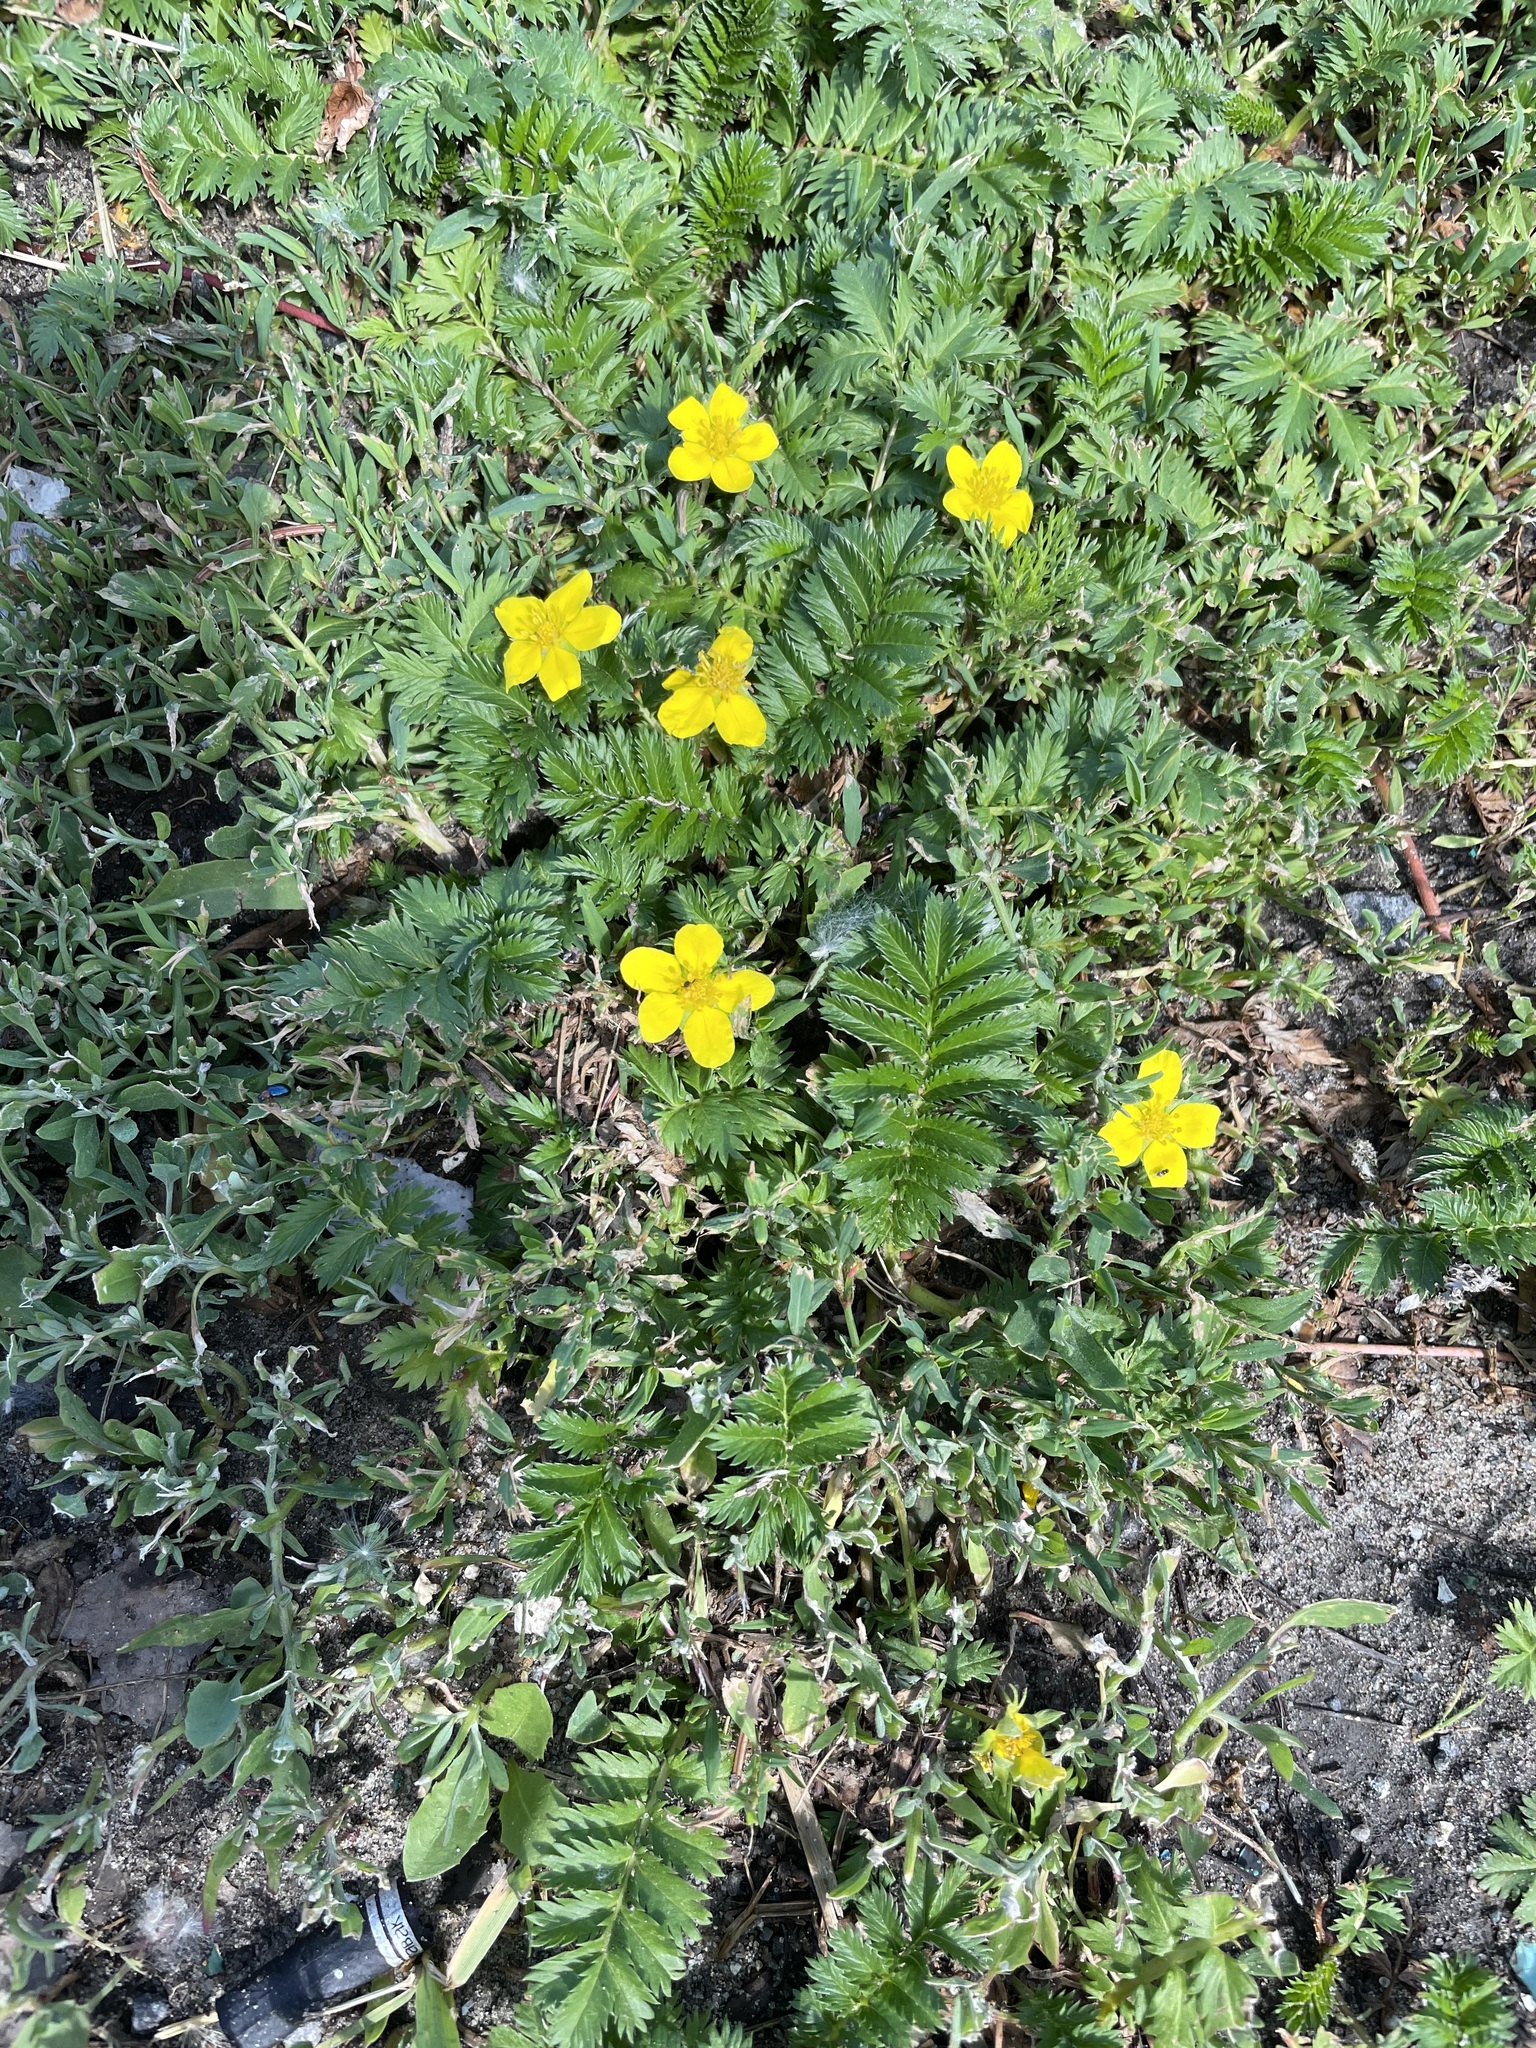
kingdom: Plantae
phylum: Tracheophyta
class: Magnoliopsida
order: Rosales
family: Rosaceae
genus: Argentina
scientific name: Argentina anserina
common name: Common silverweed
